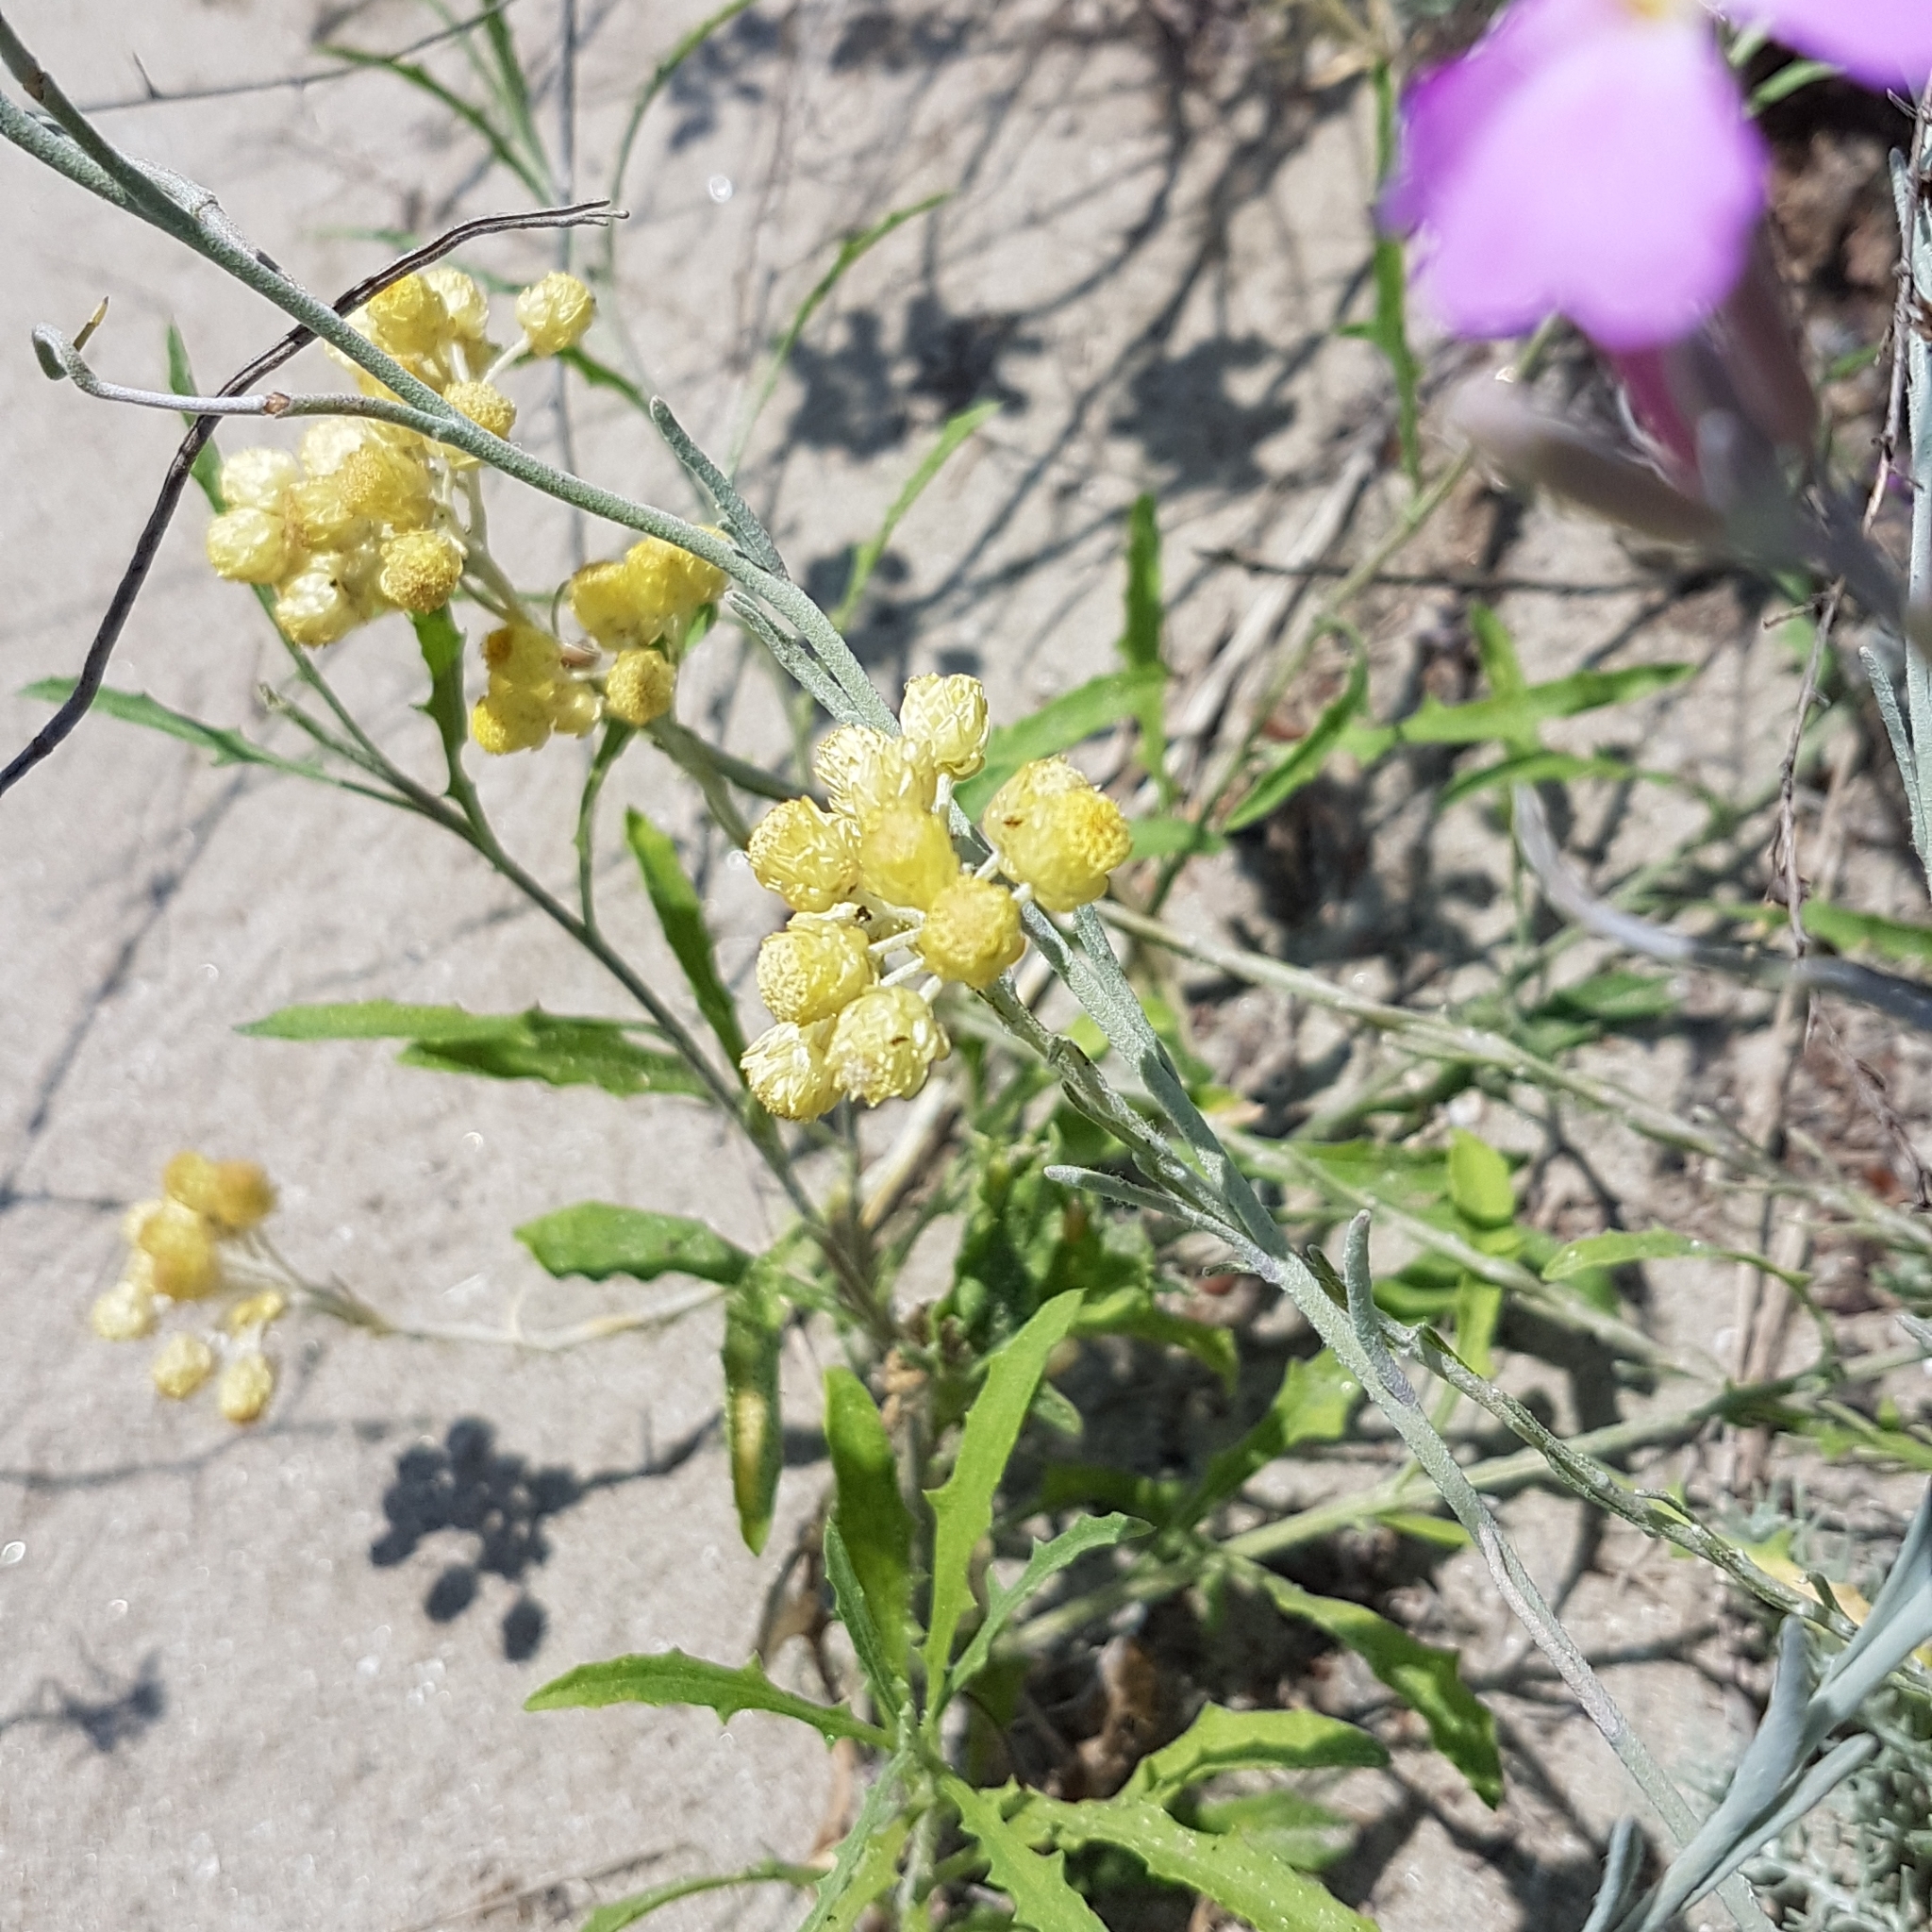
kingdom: Plantae
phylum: Tracheophyta
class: Magnoliopsida
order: Asterales
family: Asteraceae
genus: Helichrysum
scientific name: Helichrysum stoechas
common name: Goldilocks
